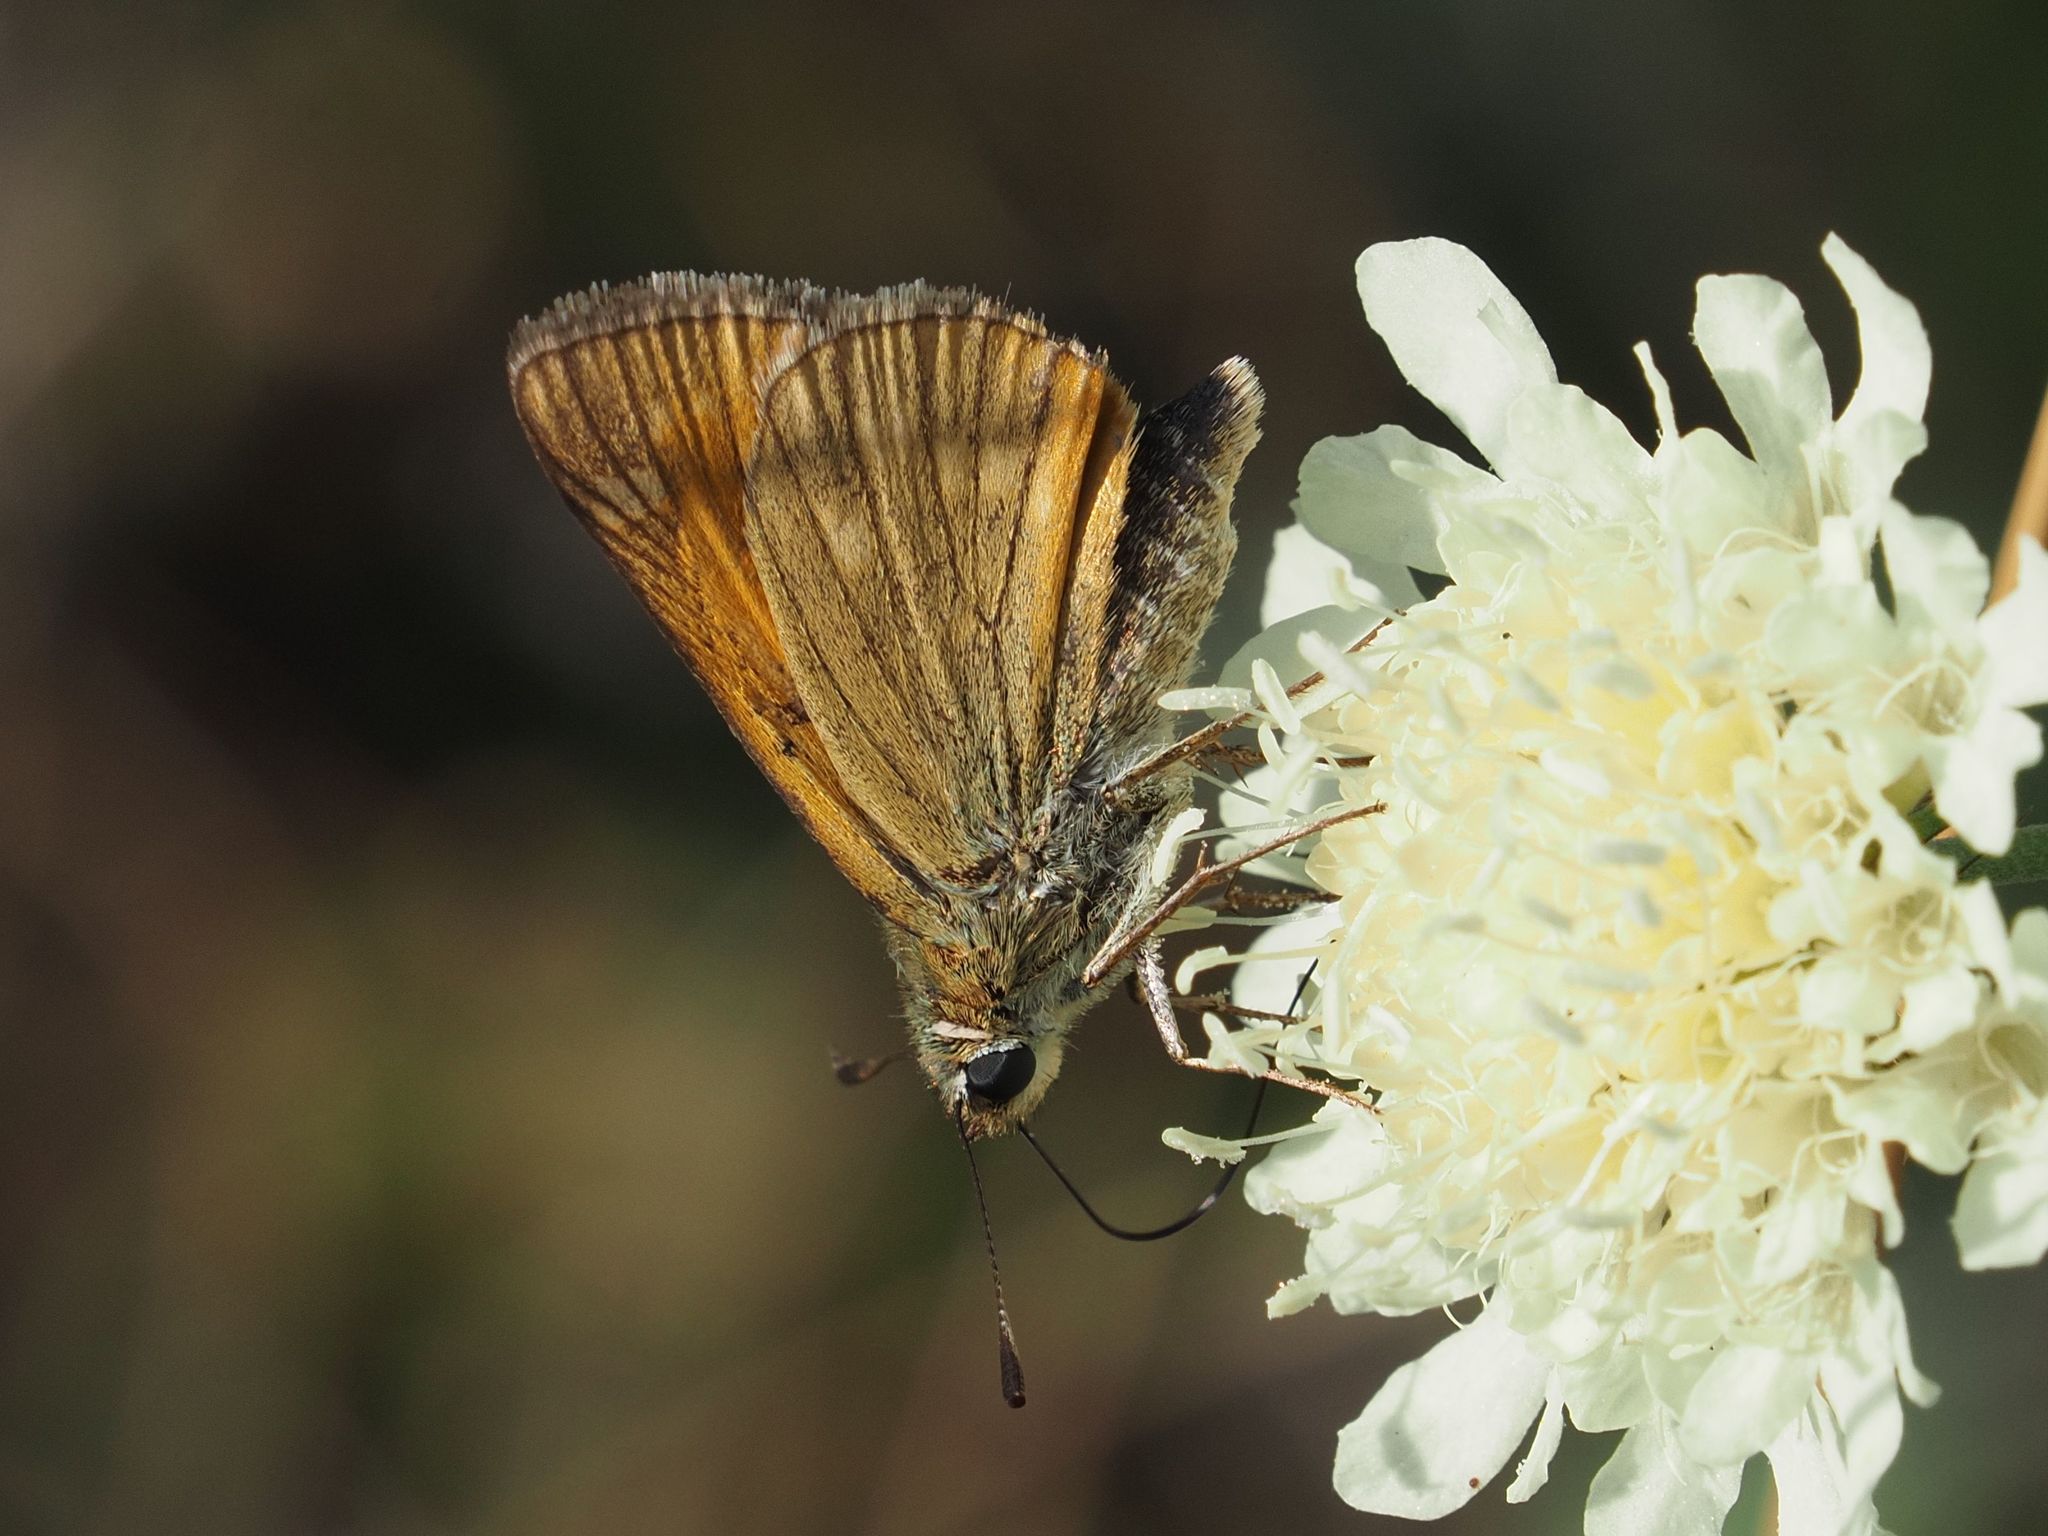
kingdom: Animalia
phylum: Arthropoda
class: Insecta
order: Lepidoptera
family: Hesperiidae
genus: Ochlodes
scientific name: Ochlodes venata
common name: Large skipper
